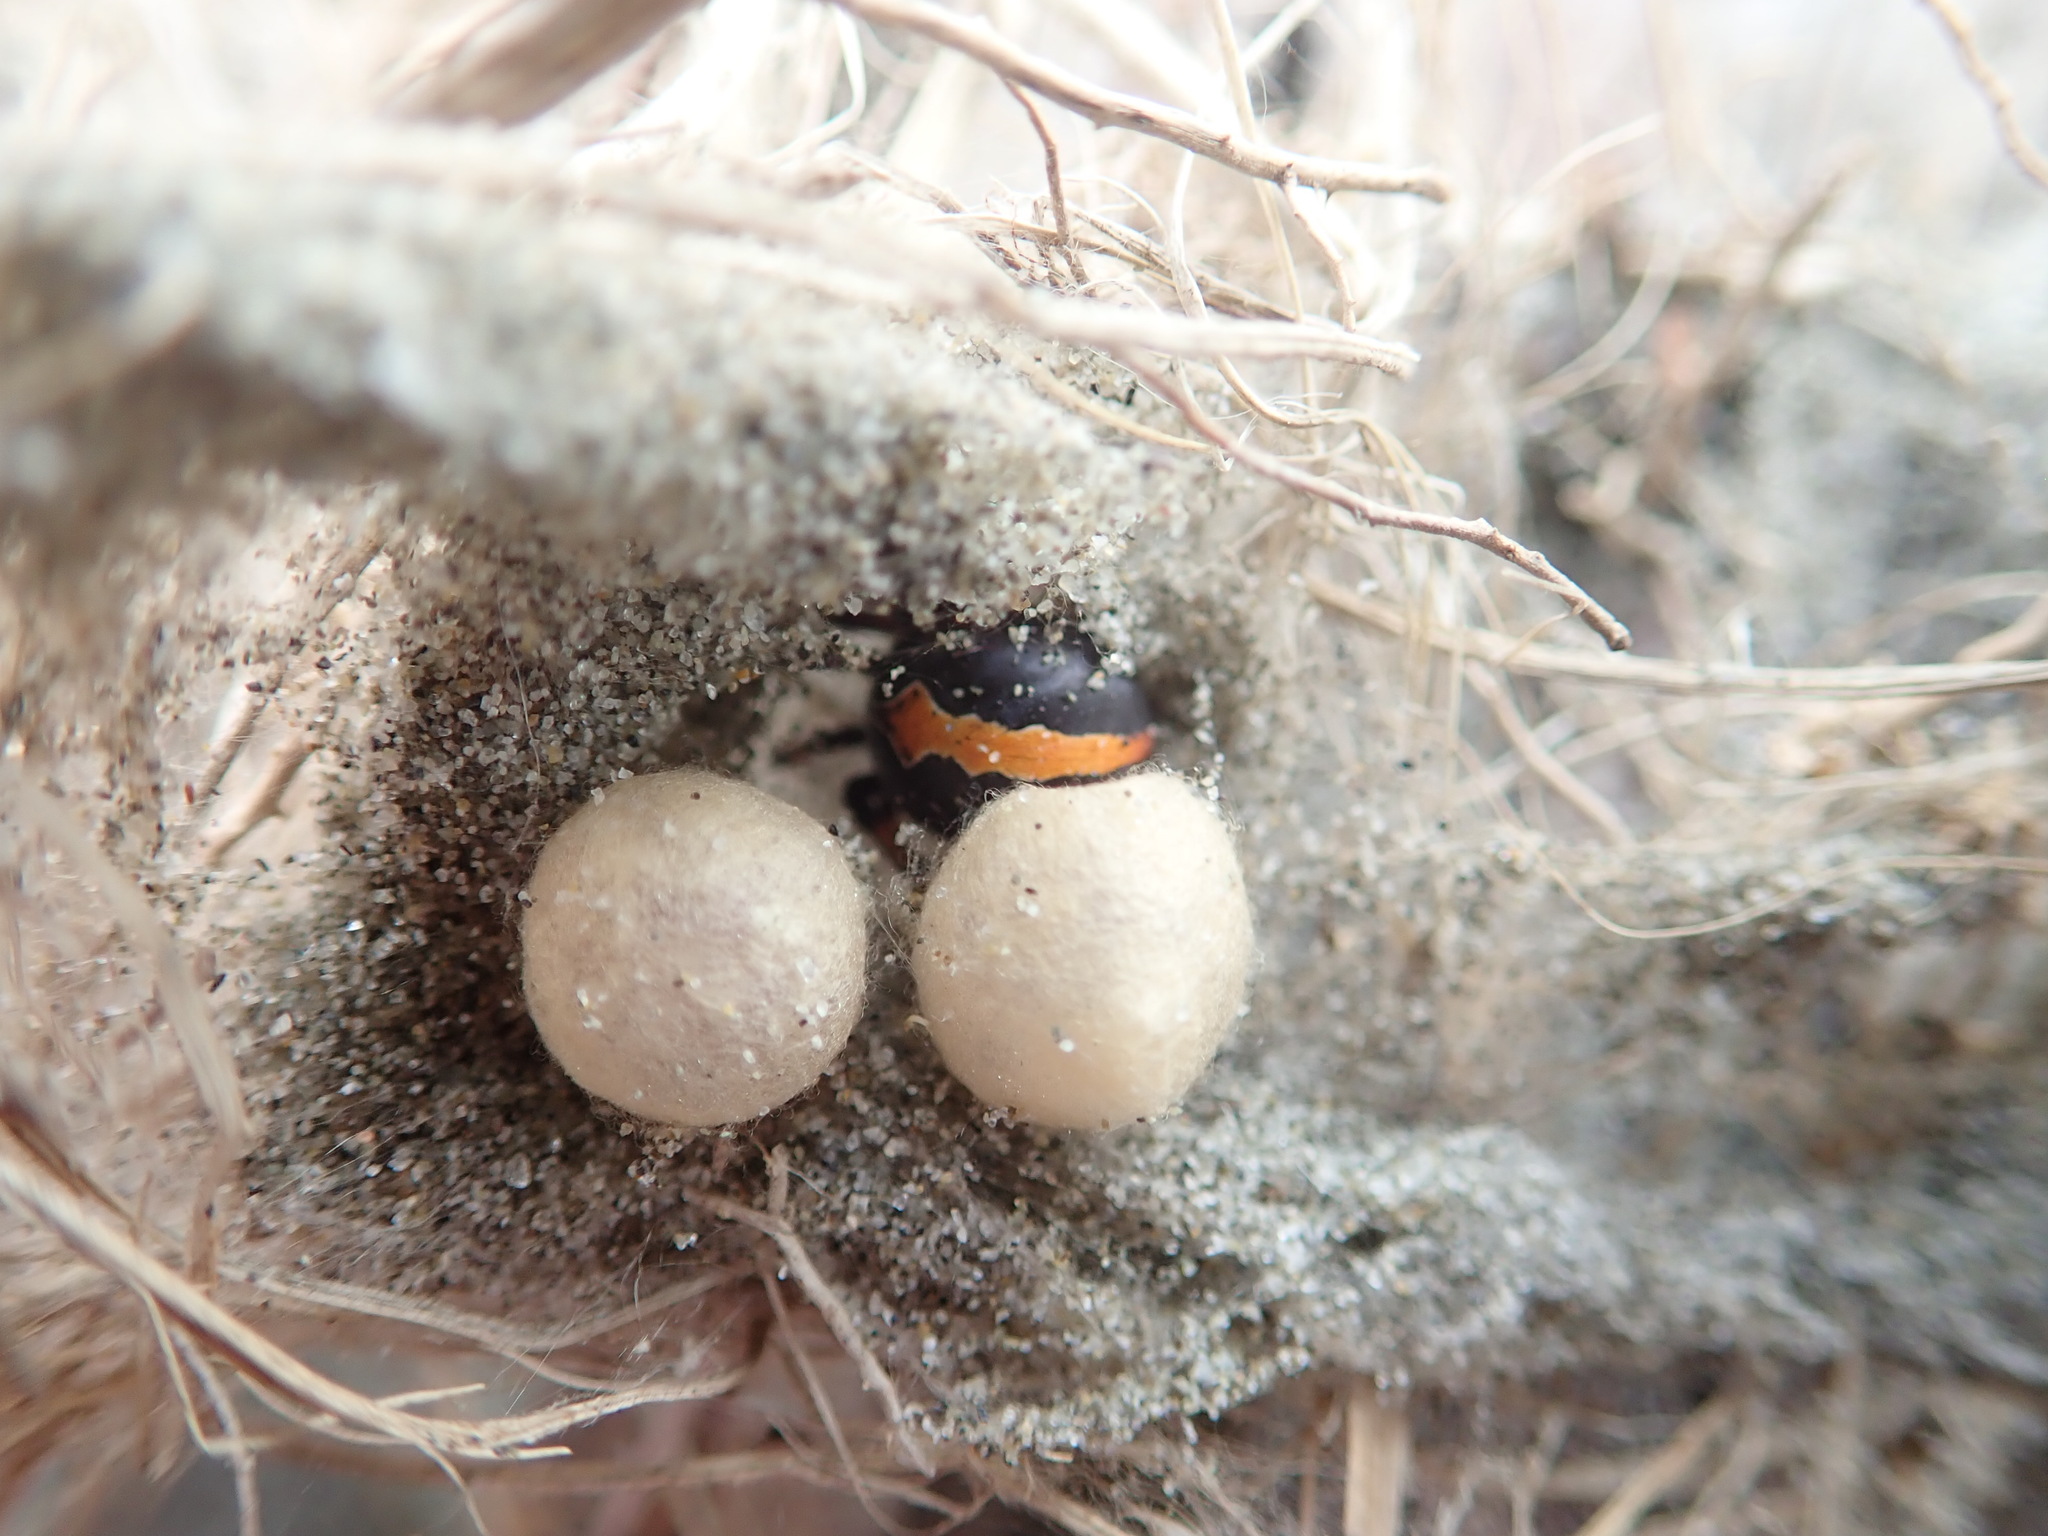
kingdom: Animalia
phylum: Arthropoda
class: Arachnida
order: Araneae
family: Theridiidae
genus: Latrodectus
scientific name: Latrodectus katipo
